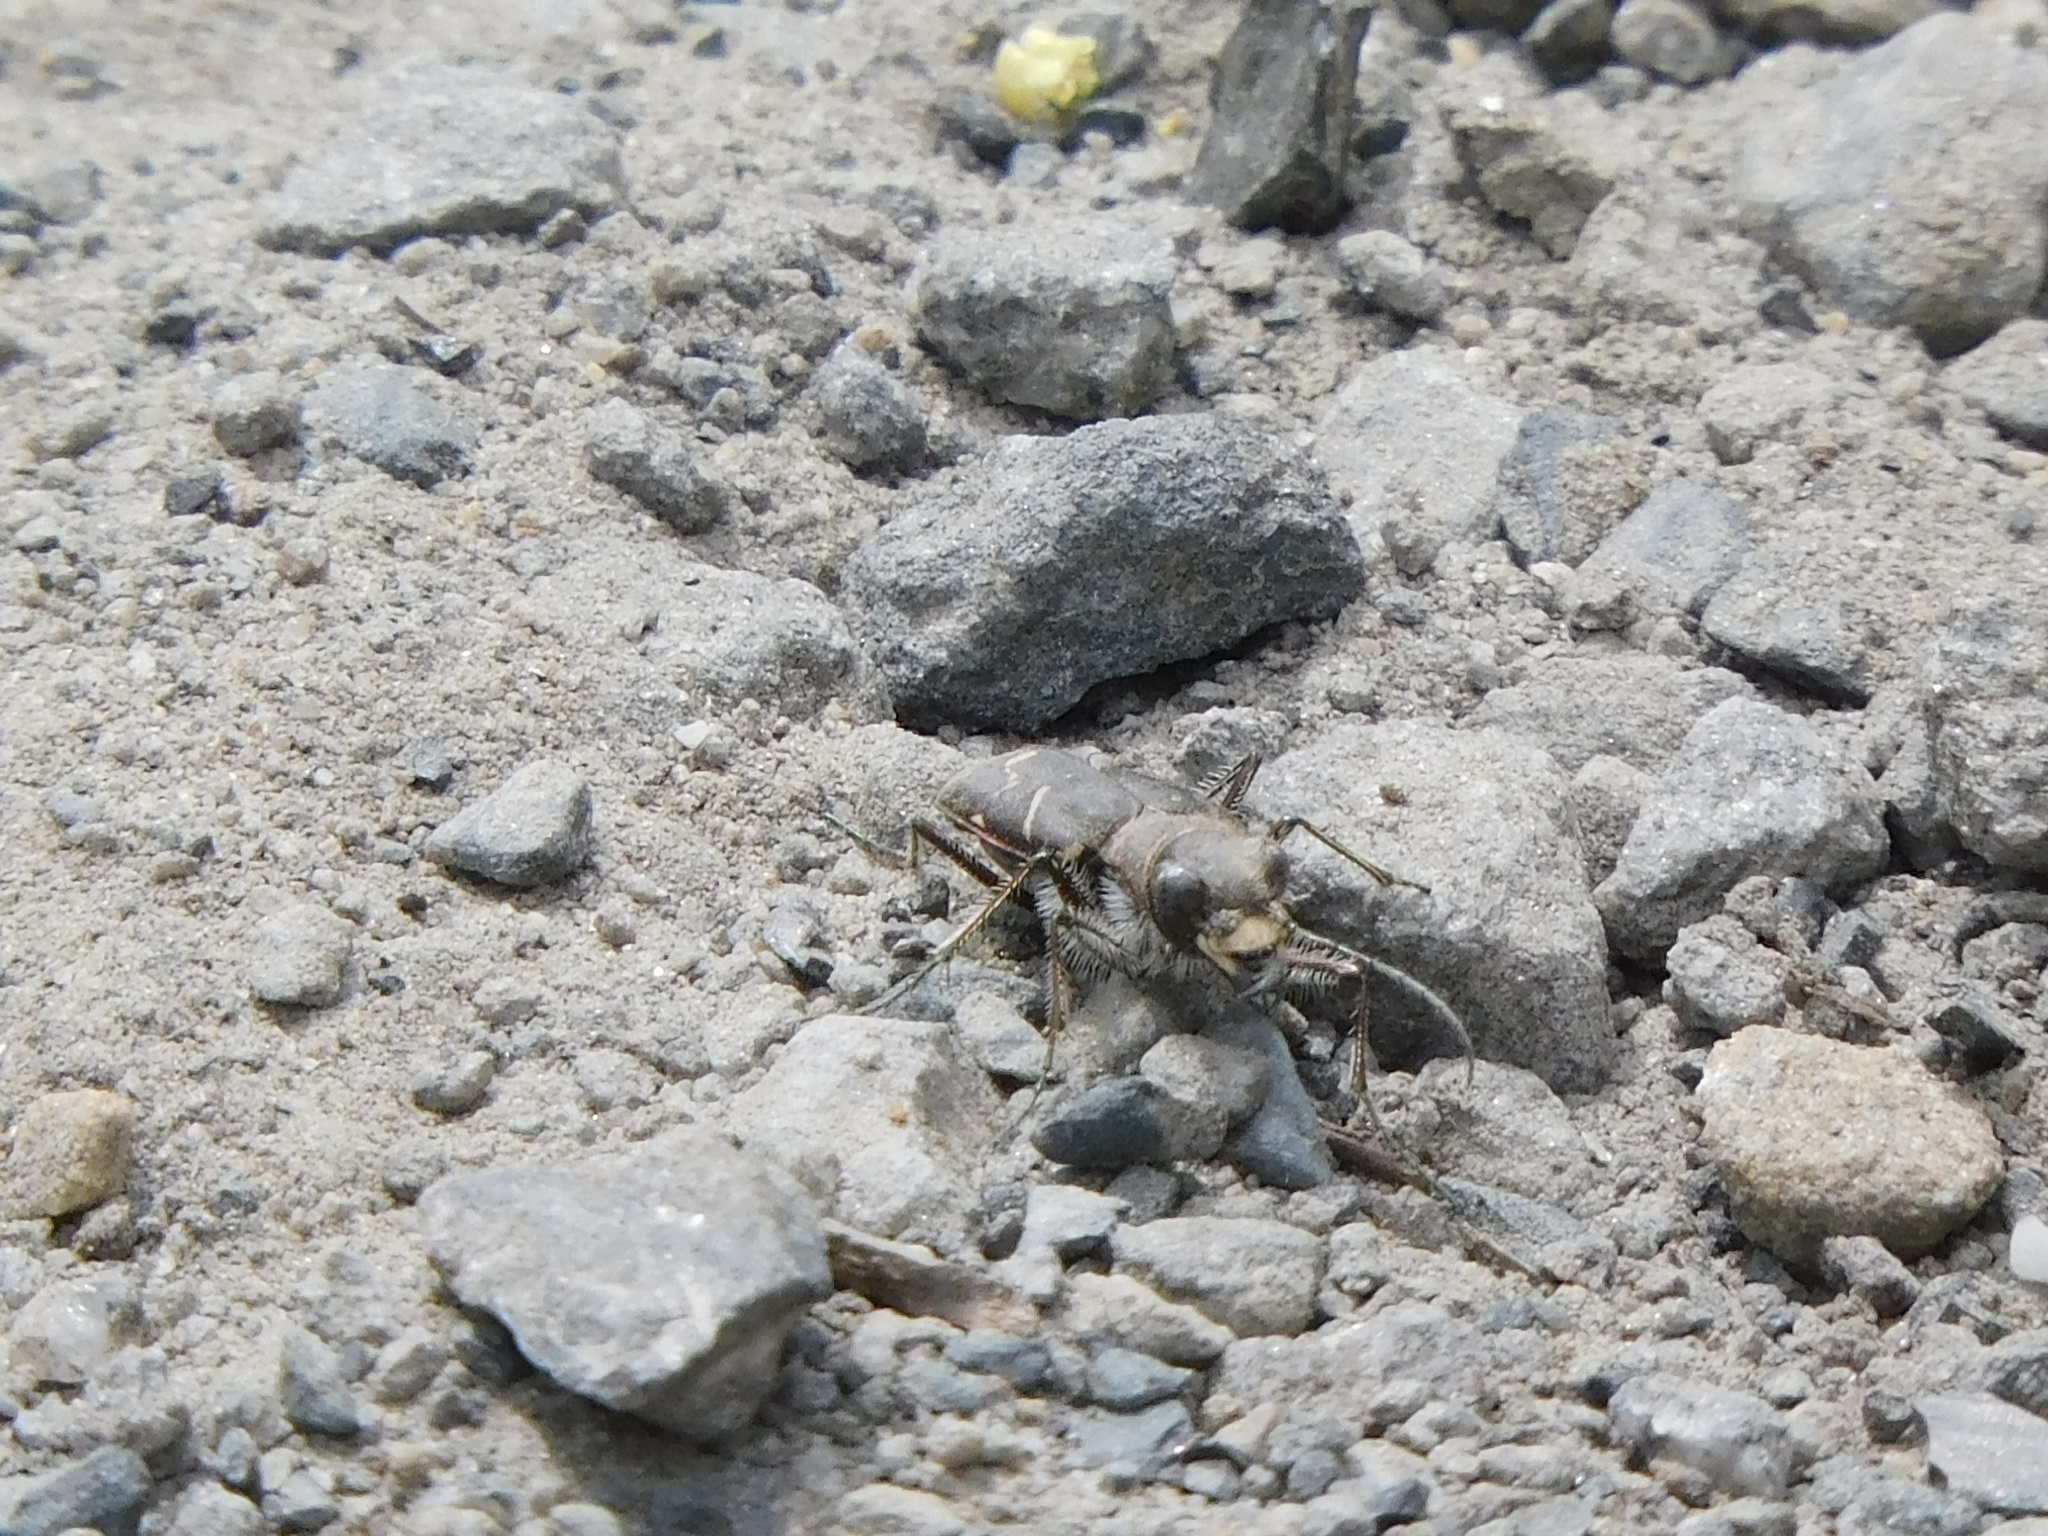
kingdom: Animalia
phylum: Arthropoda
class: Insecta
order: Coleoptera
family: Carabidae
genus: Cicindela
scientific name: Cicindela tranquebarica
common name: Oblique-lined tiger beetle
